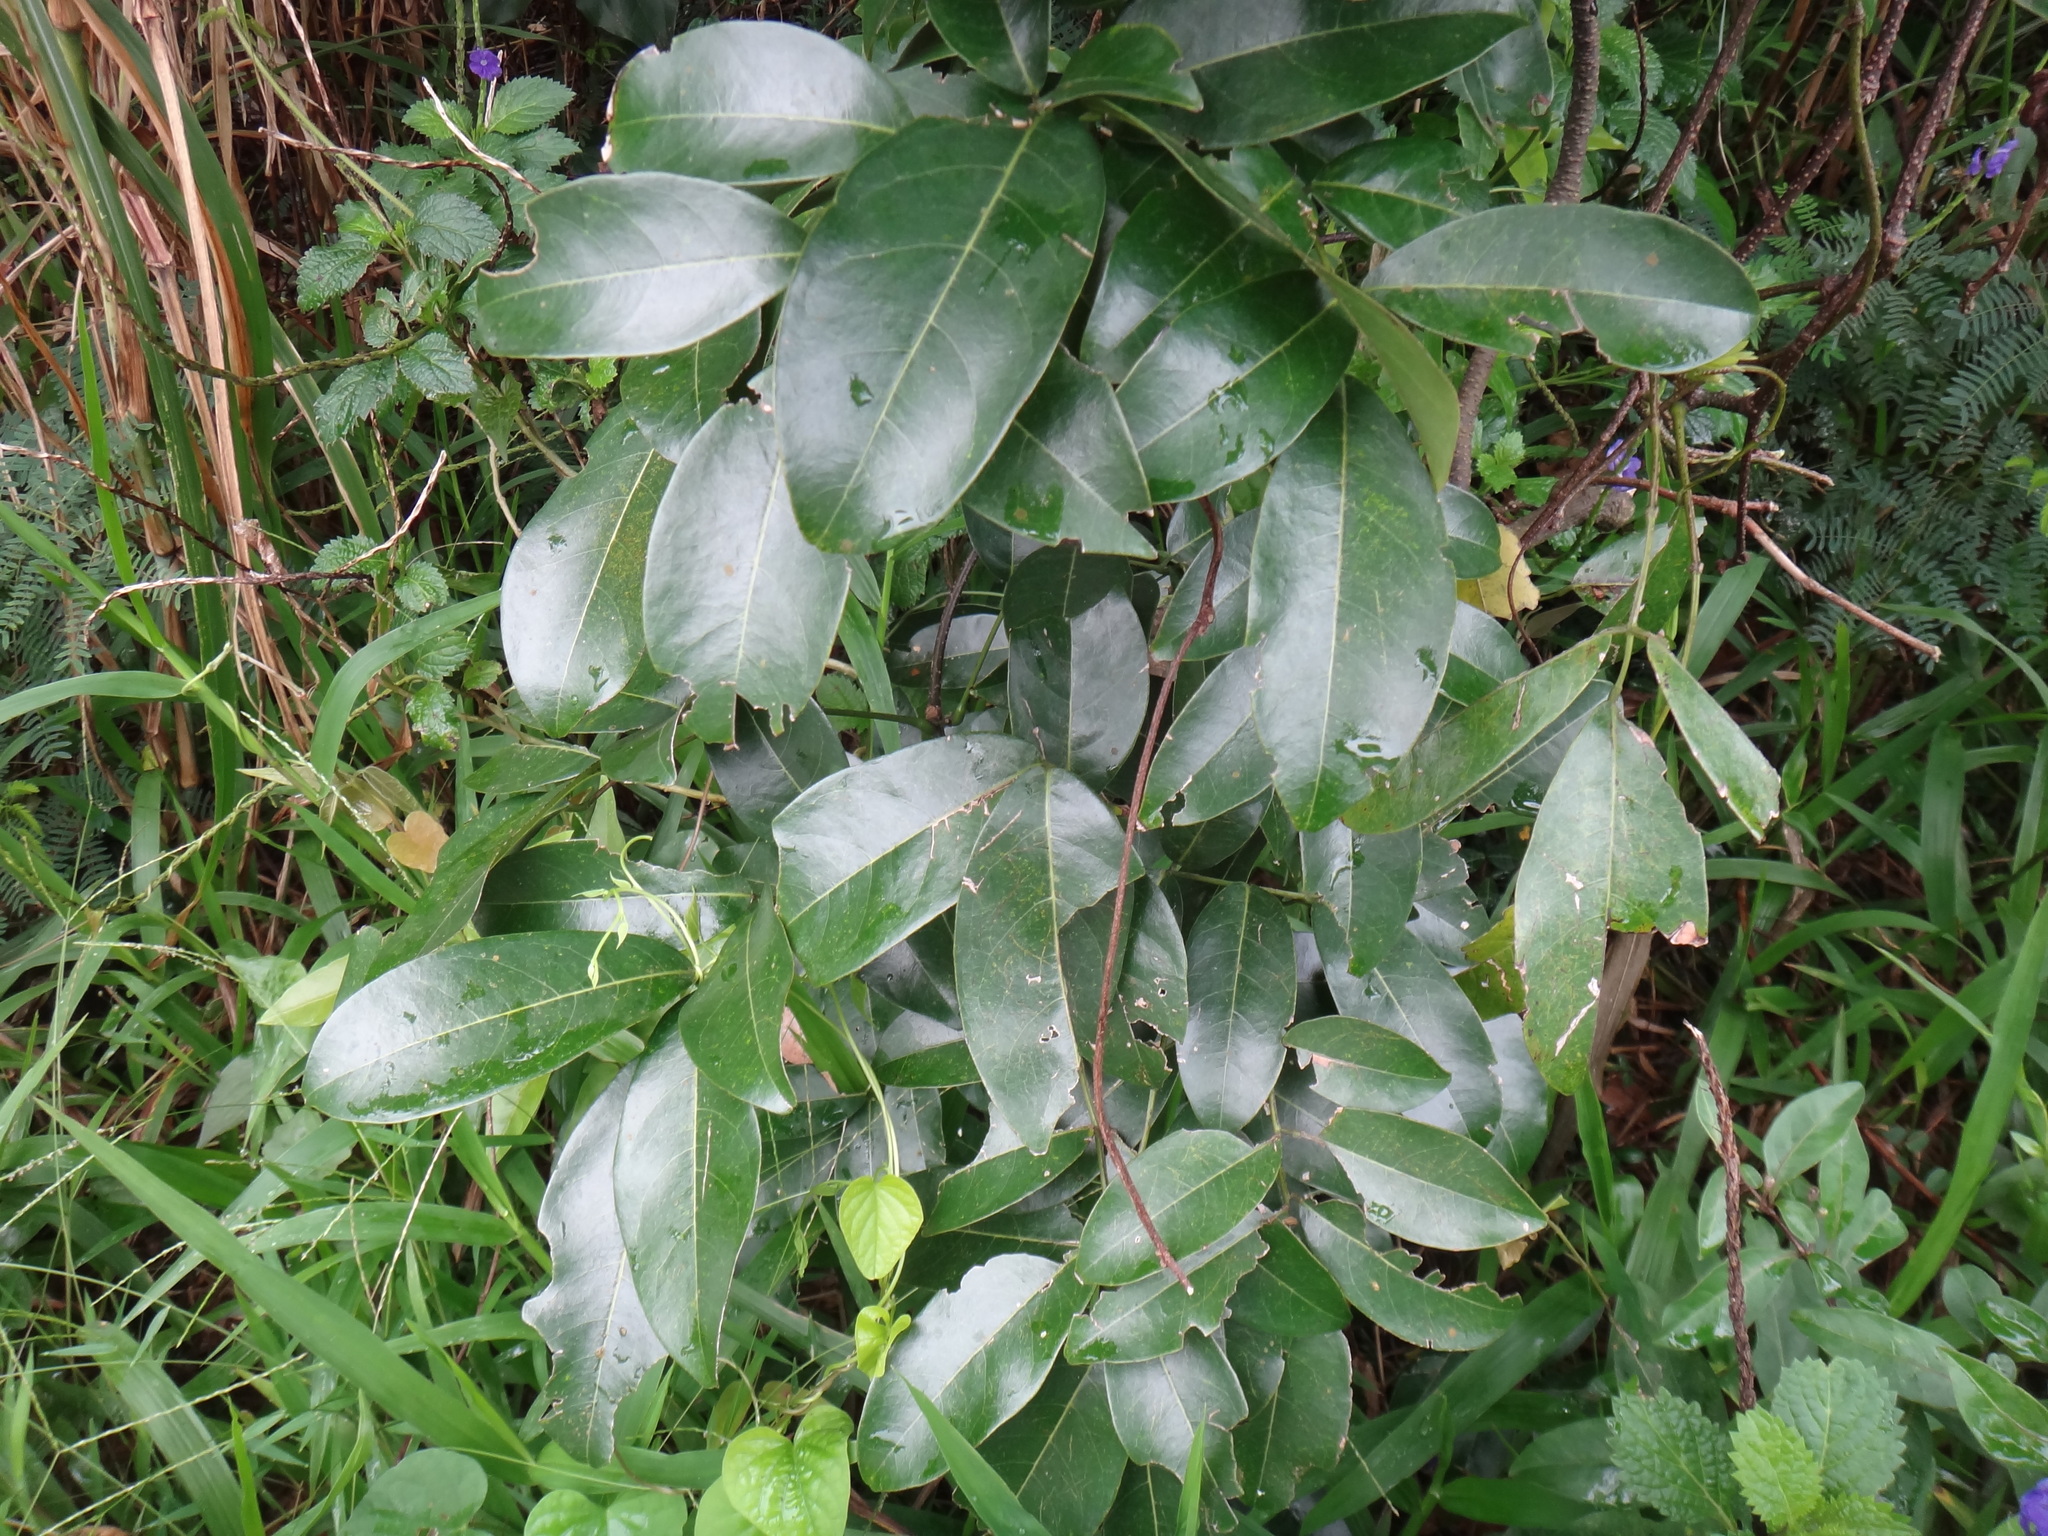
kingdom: Plantae
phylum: Tracheophyta
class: Magnoliopsida
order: Fabales
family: Fabaceae
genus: Derris
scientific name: Derris laxiflora
